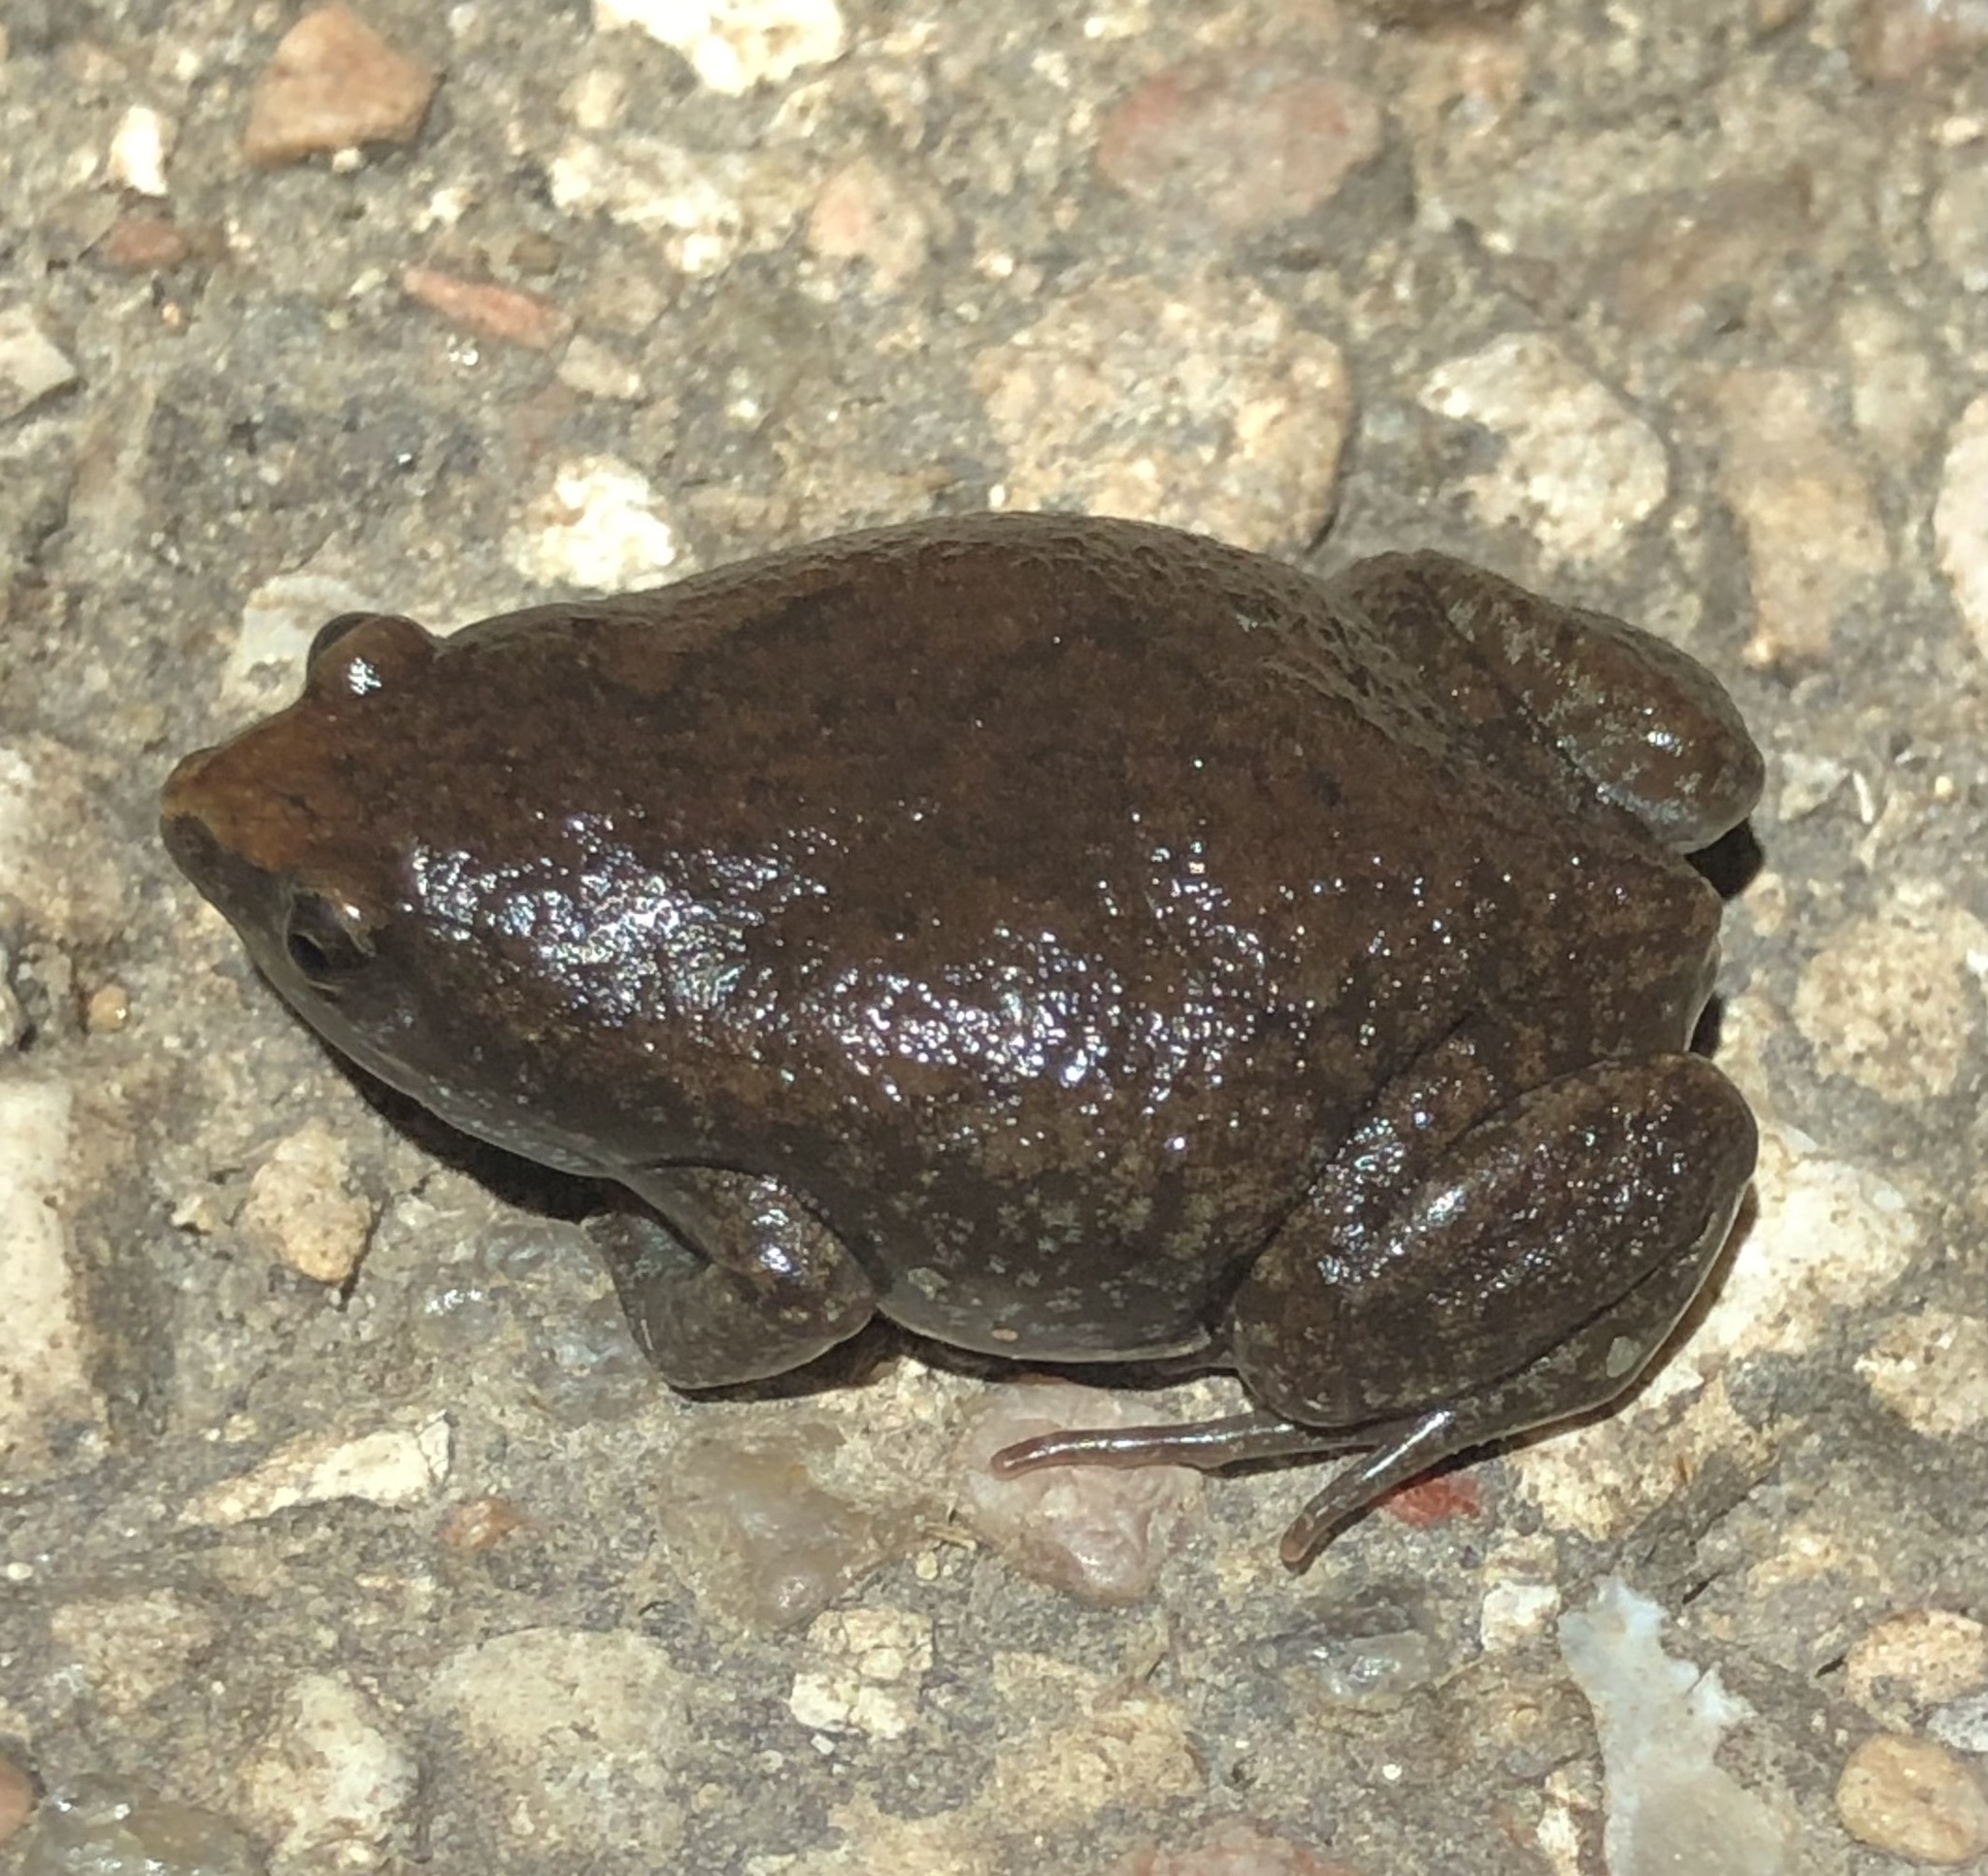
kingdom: Animalia
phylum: Chordata
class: Amphibia
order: Anura
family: Microhylidae
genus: Gastrophryne
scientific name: Gastrophryne carolinensis
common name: Eastern narrowmouth toad
